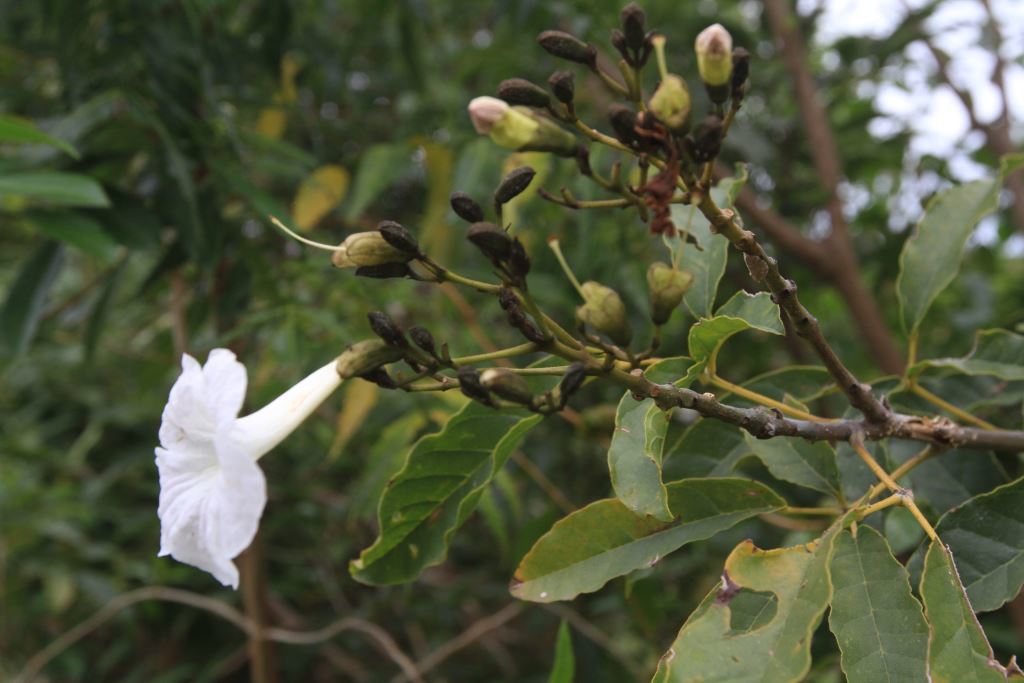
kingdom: Plantae
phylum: Tracheophyta
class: Magnoliopsida
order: Lamiales
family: Bignoniaceae
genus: Tabebuia
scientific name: Tabebuia calcicola
